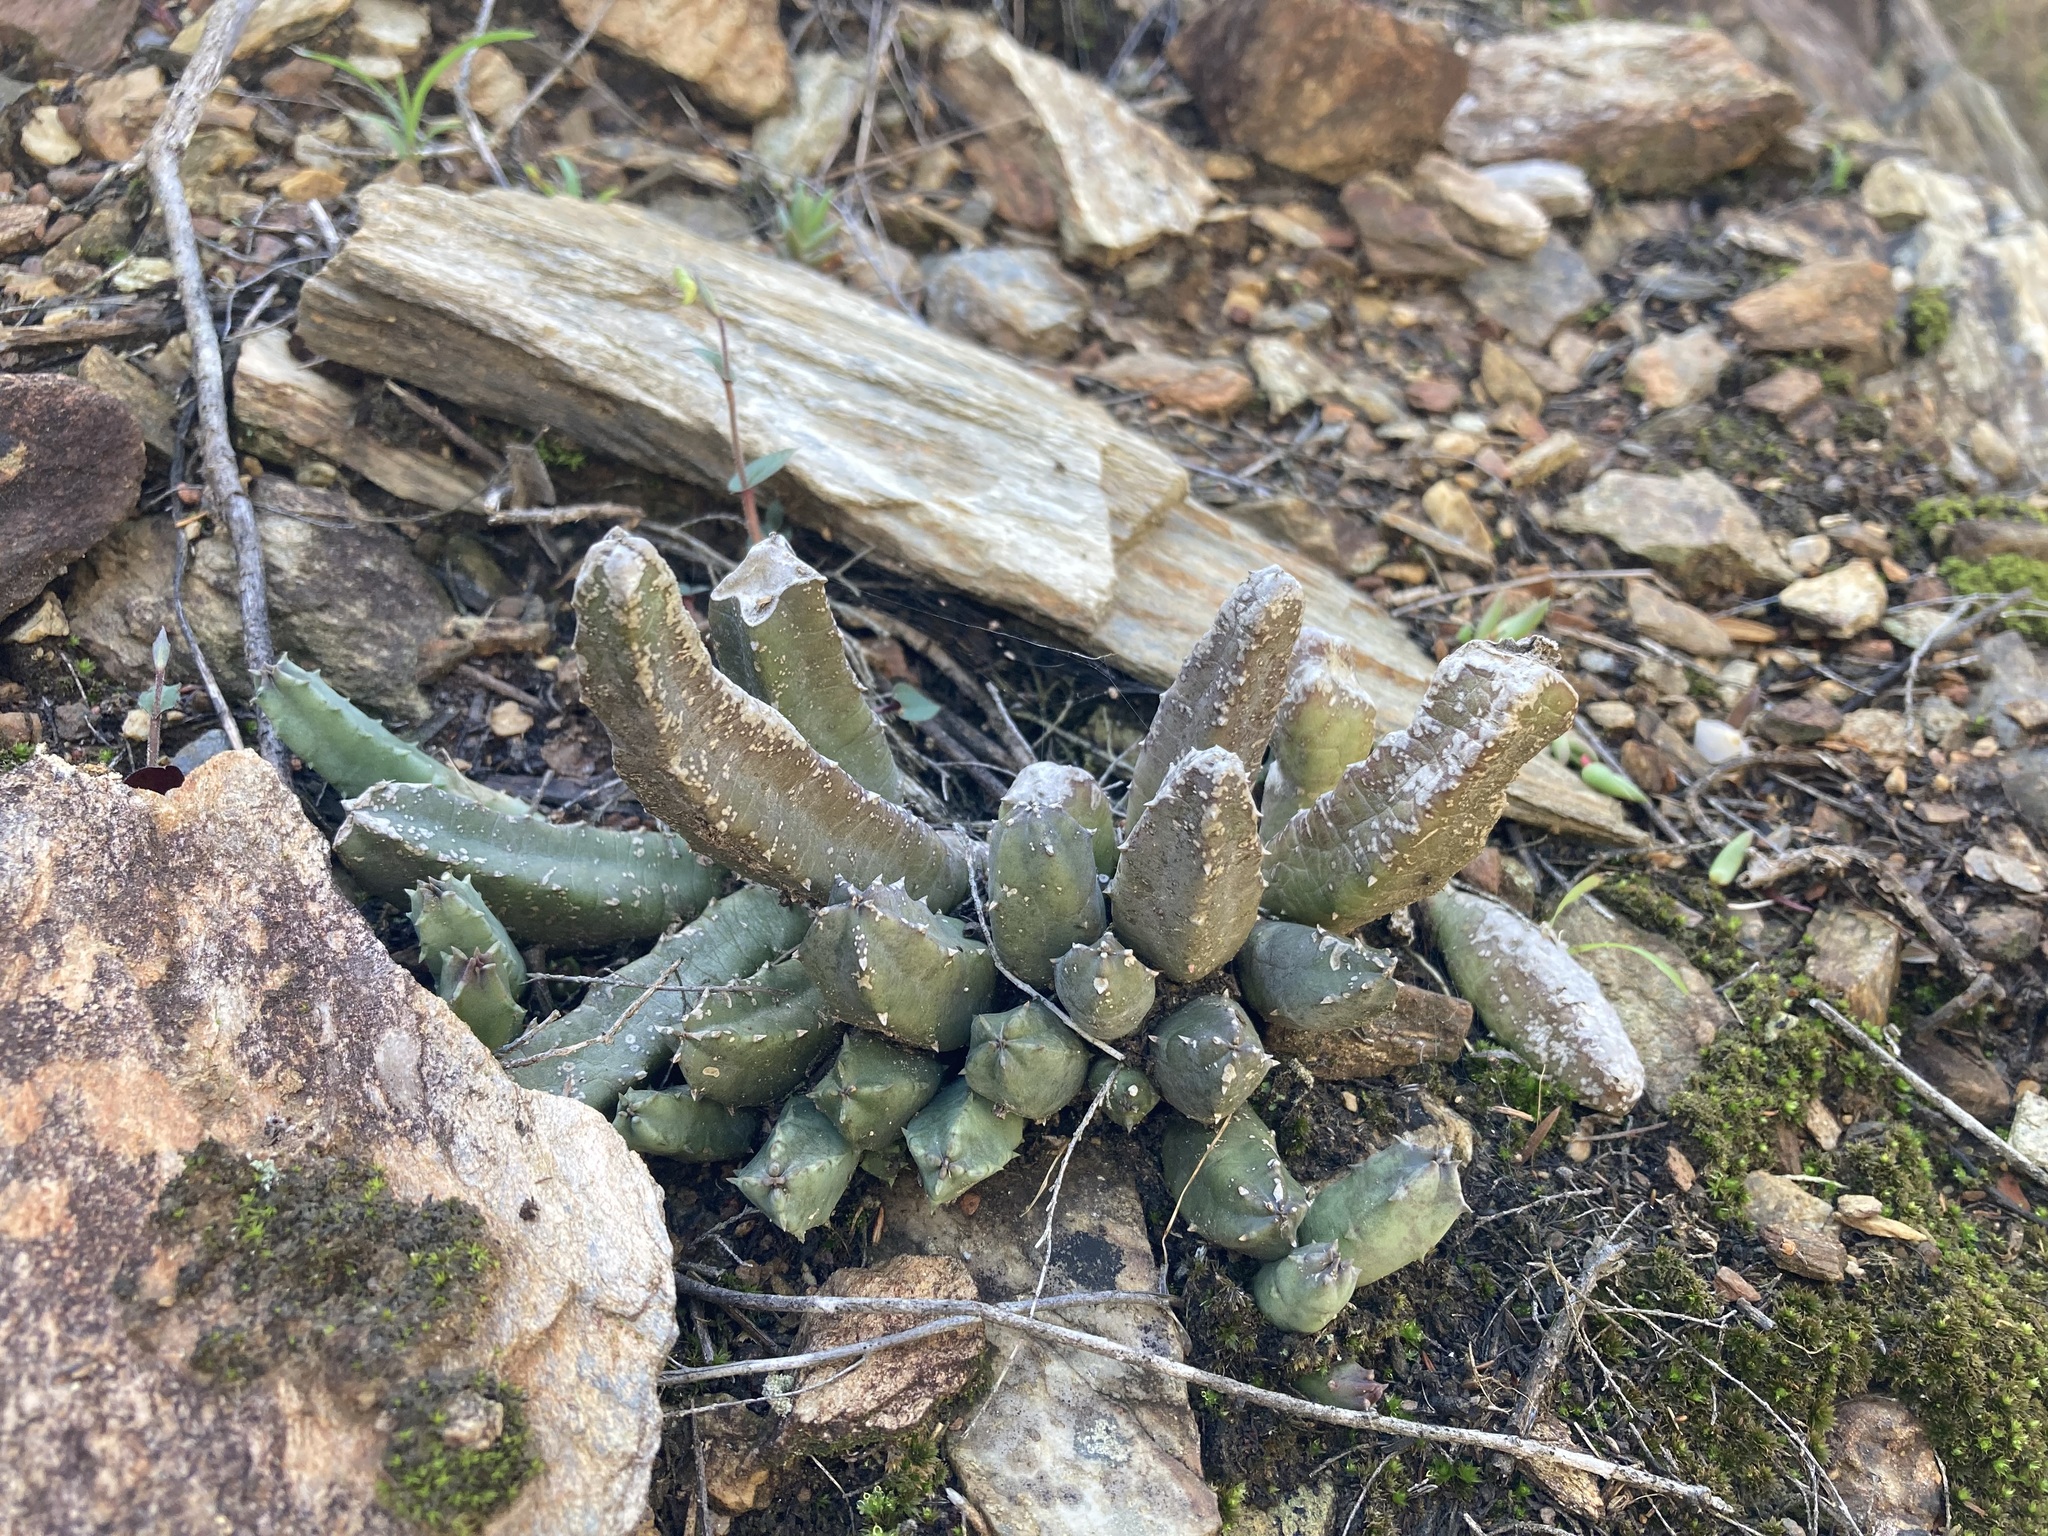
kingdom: Plantae
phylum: Tracheophyta
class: Magnoliopsida
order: Gentianales
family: Apocynaceae
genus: Ceropegia
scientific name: Ceropegia clavigera
